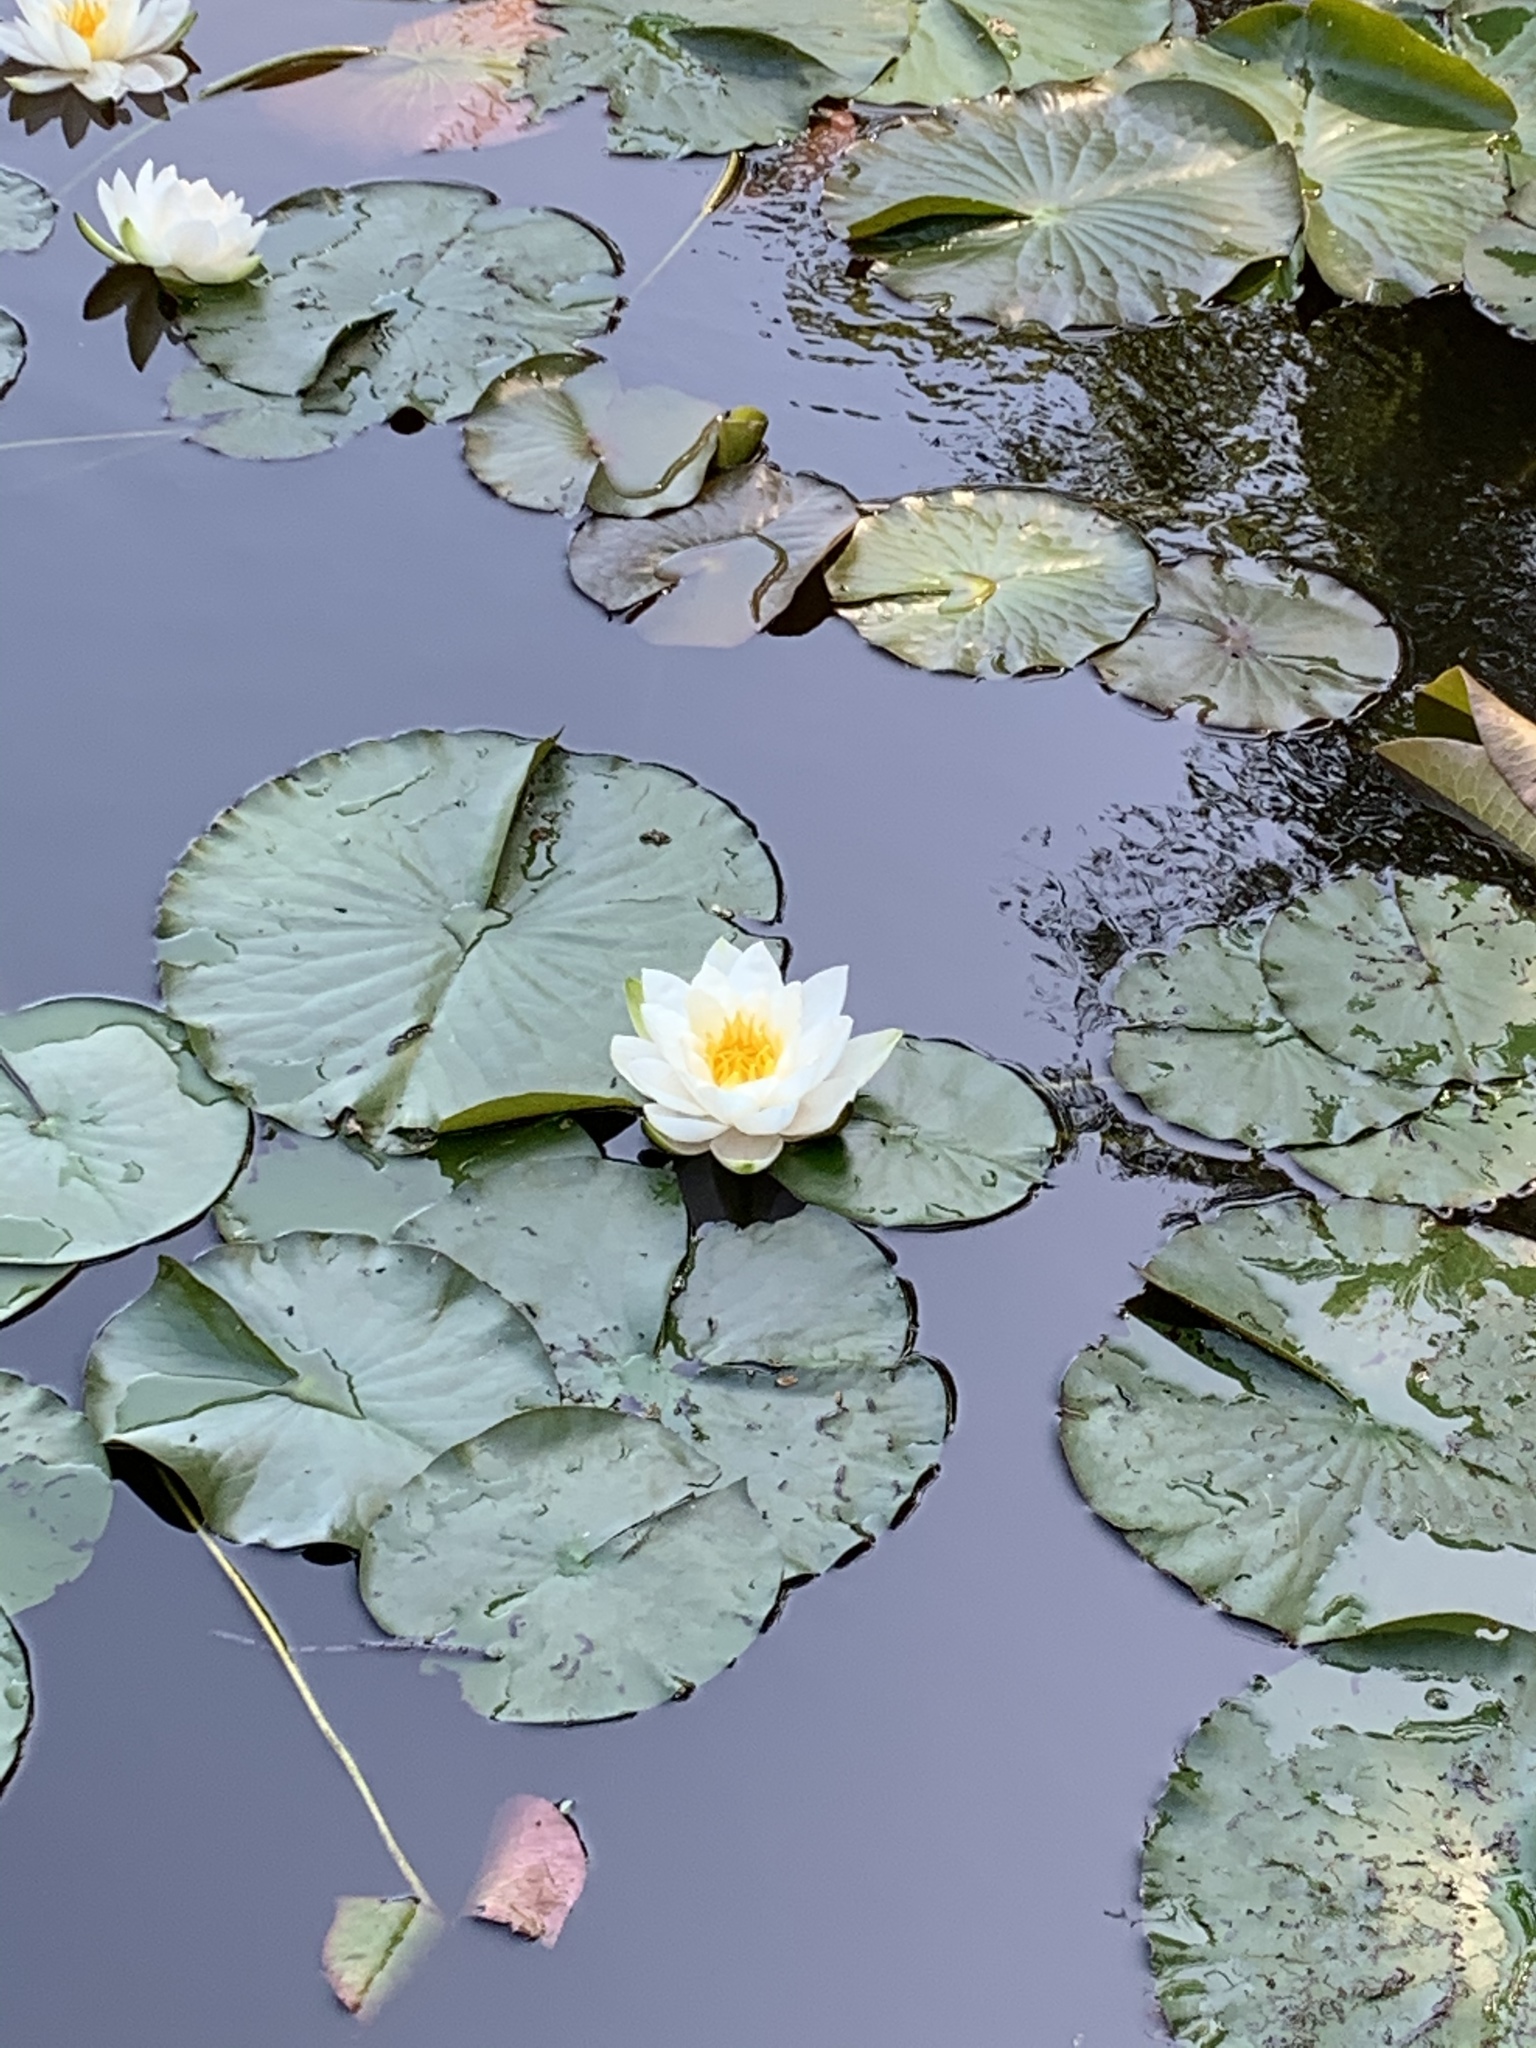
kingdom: Plantae
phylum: Tracheophyta
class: Magnoliopsida
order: Nymphaeales
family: Nymphaeaceae
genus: Nymphaea
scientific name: Nymphaea alba
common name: White water-lily
